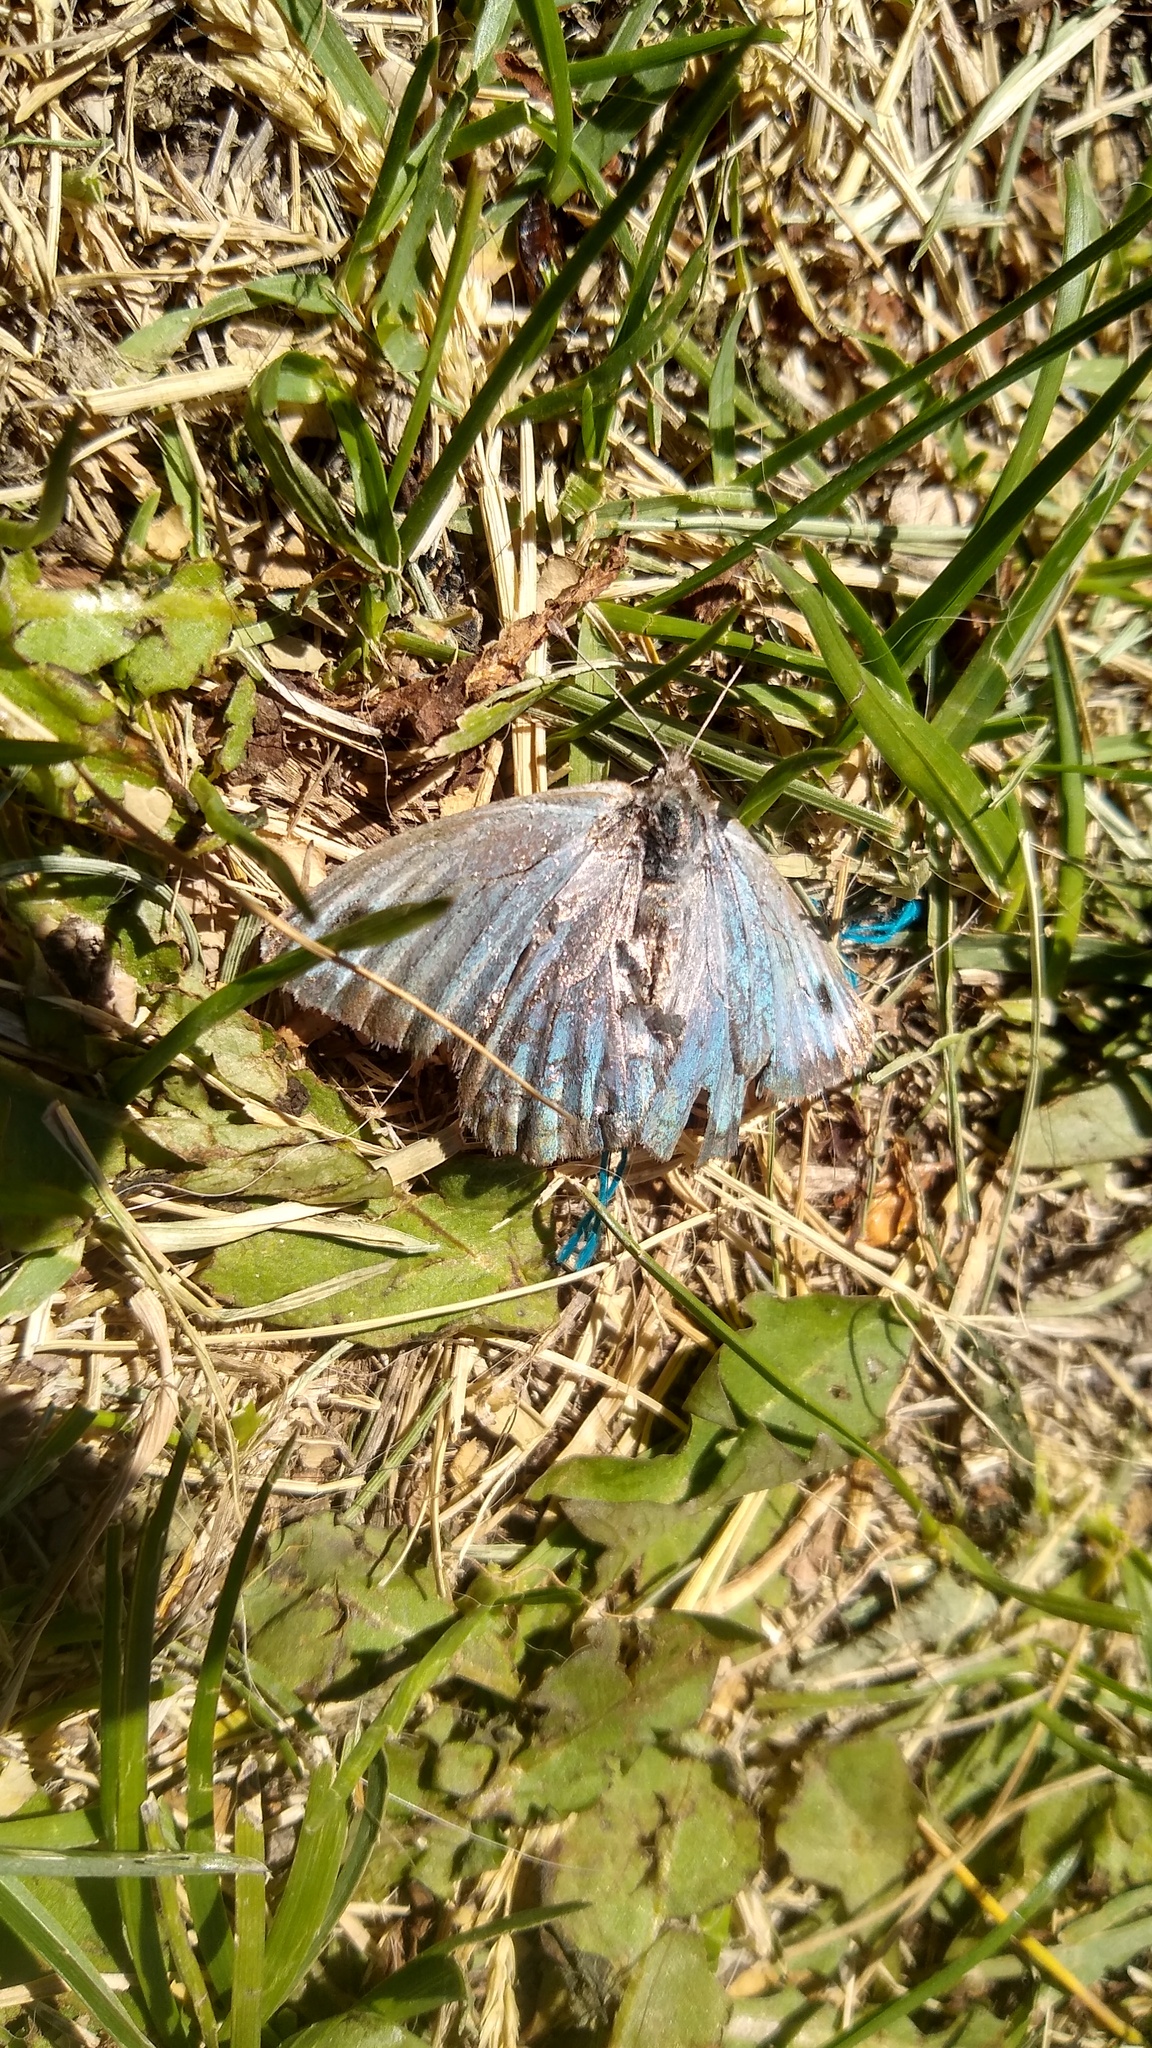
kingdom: Animalia
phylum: Arthropoda
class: Insecta
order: Lepidoptera
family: Nymphalidae
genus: Argyrophorus
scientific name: Argyrophorus argenteus
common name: Silver satyr
